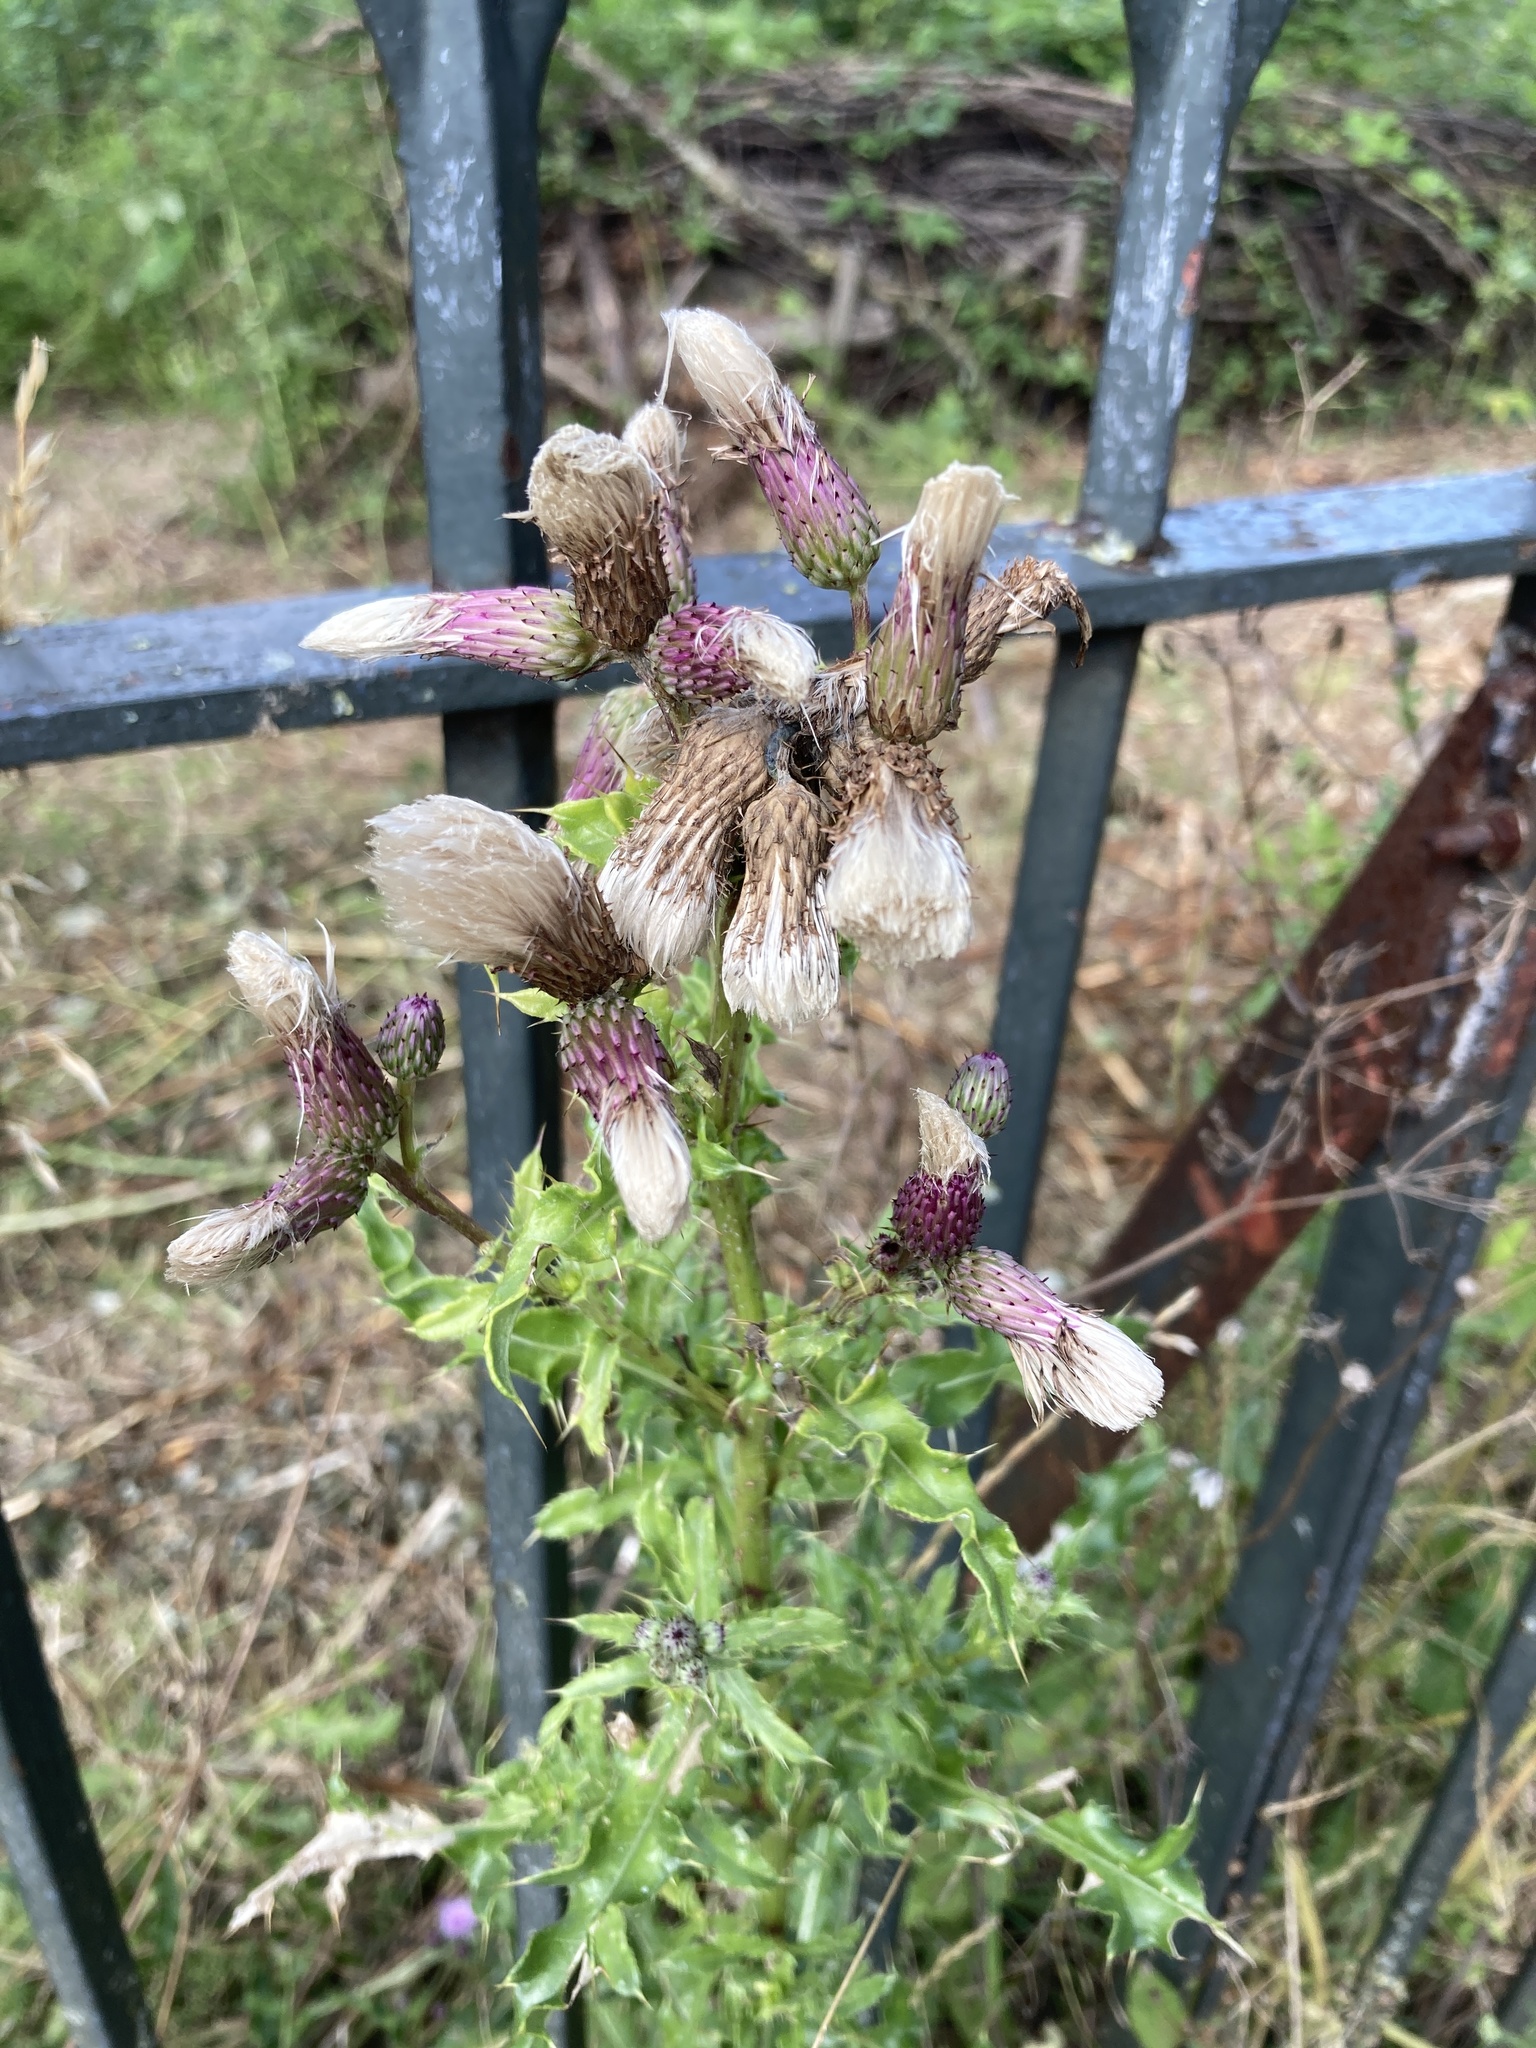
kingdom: Plantae
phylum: Tracheophyta
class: Magnoliopsida
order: Asterales
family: Asteraceae
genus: Cirsium
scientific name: Cirsium arvense
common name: Creeping thistle
